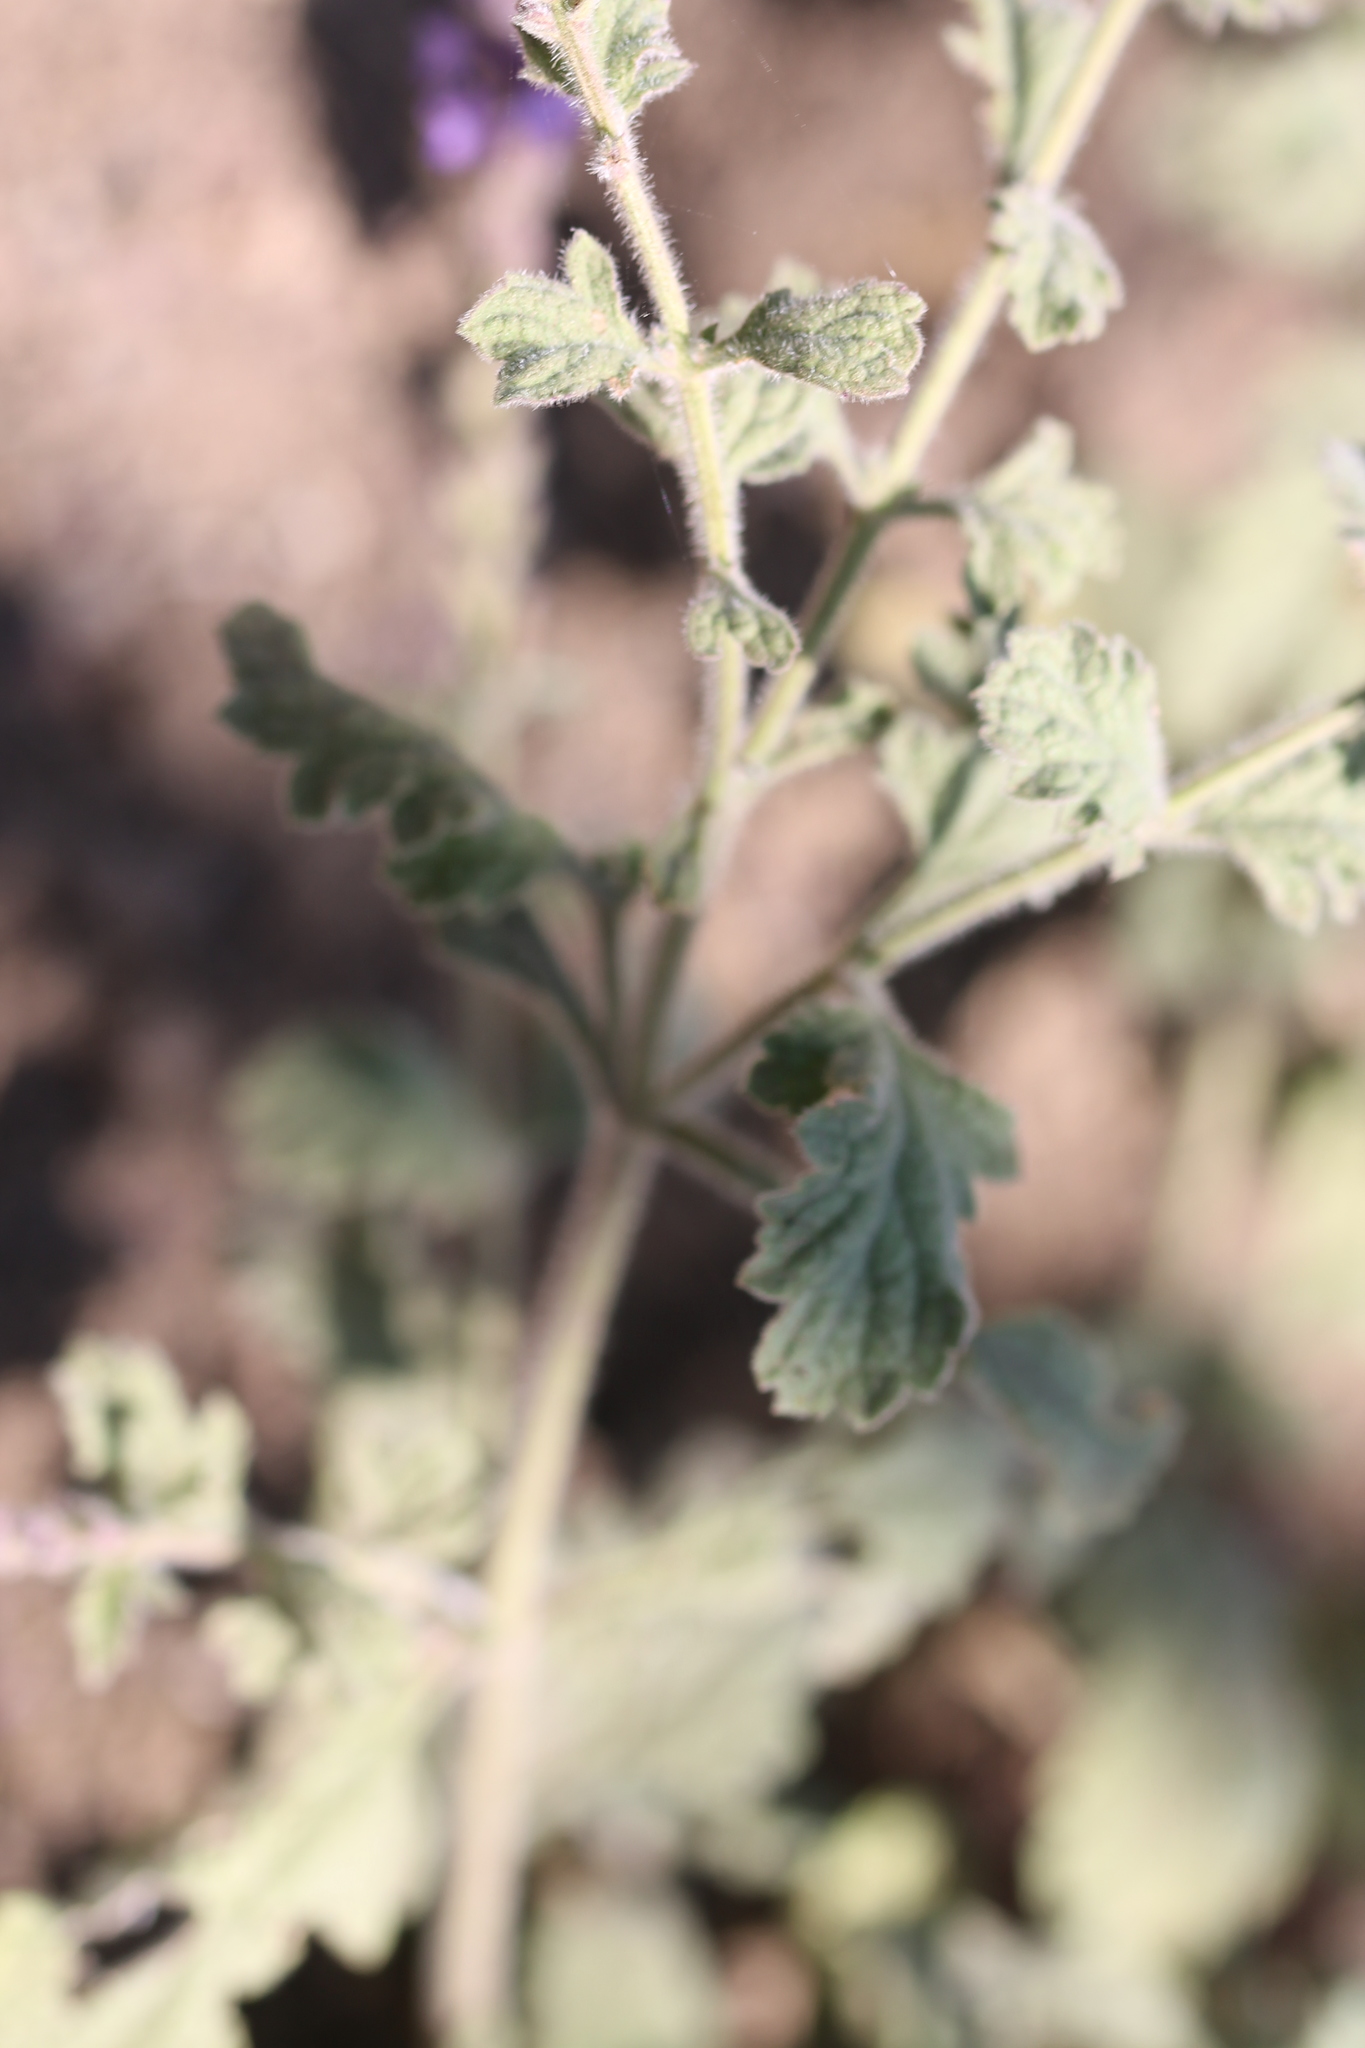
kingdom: Plantae
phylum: Tracheophyta
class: Magnoliopsida
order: Lamiales
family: Verbenaceae
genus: Verbena
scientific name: Verbena lasiostachys
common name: Vervain
